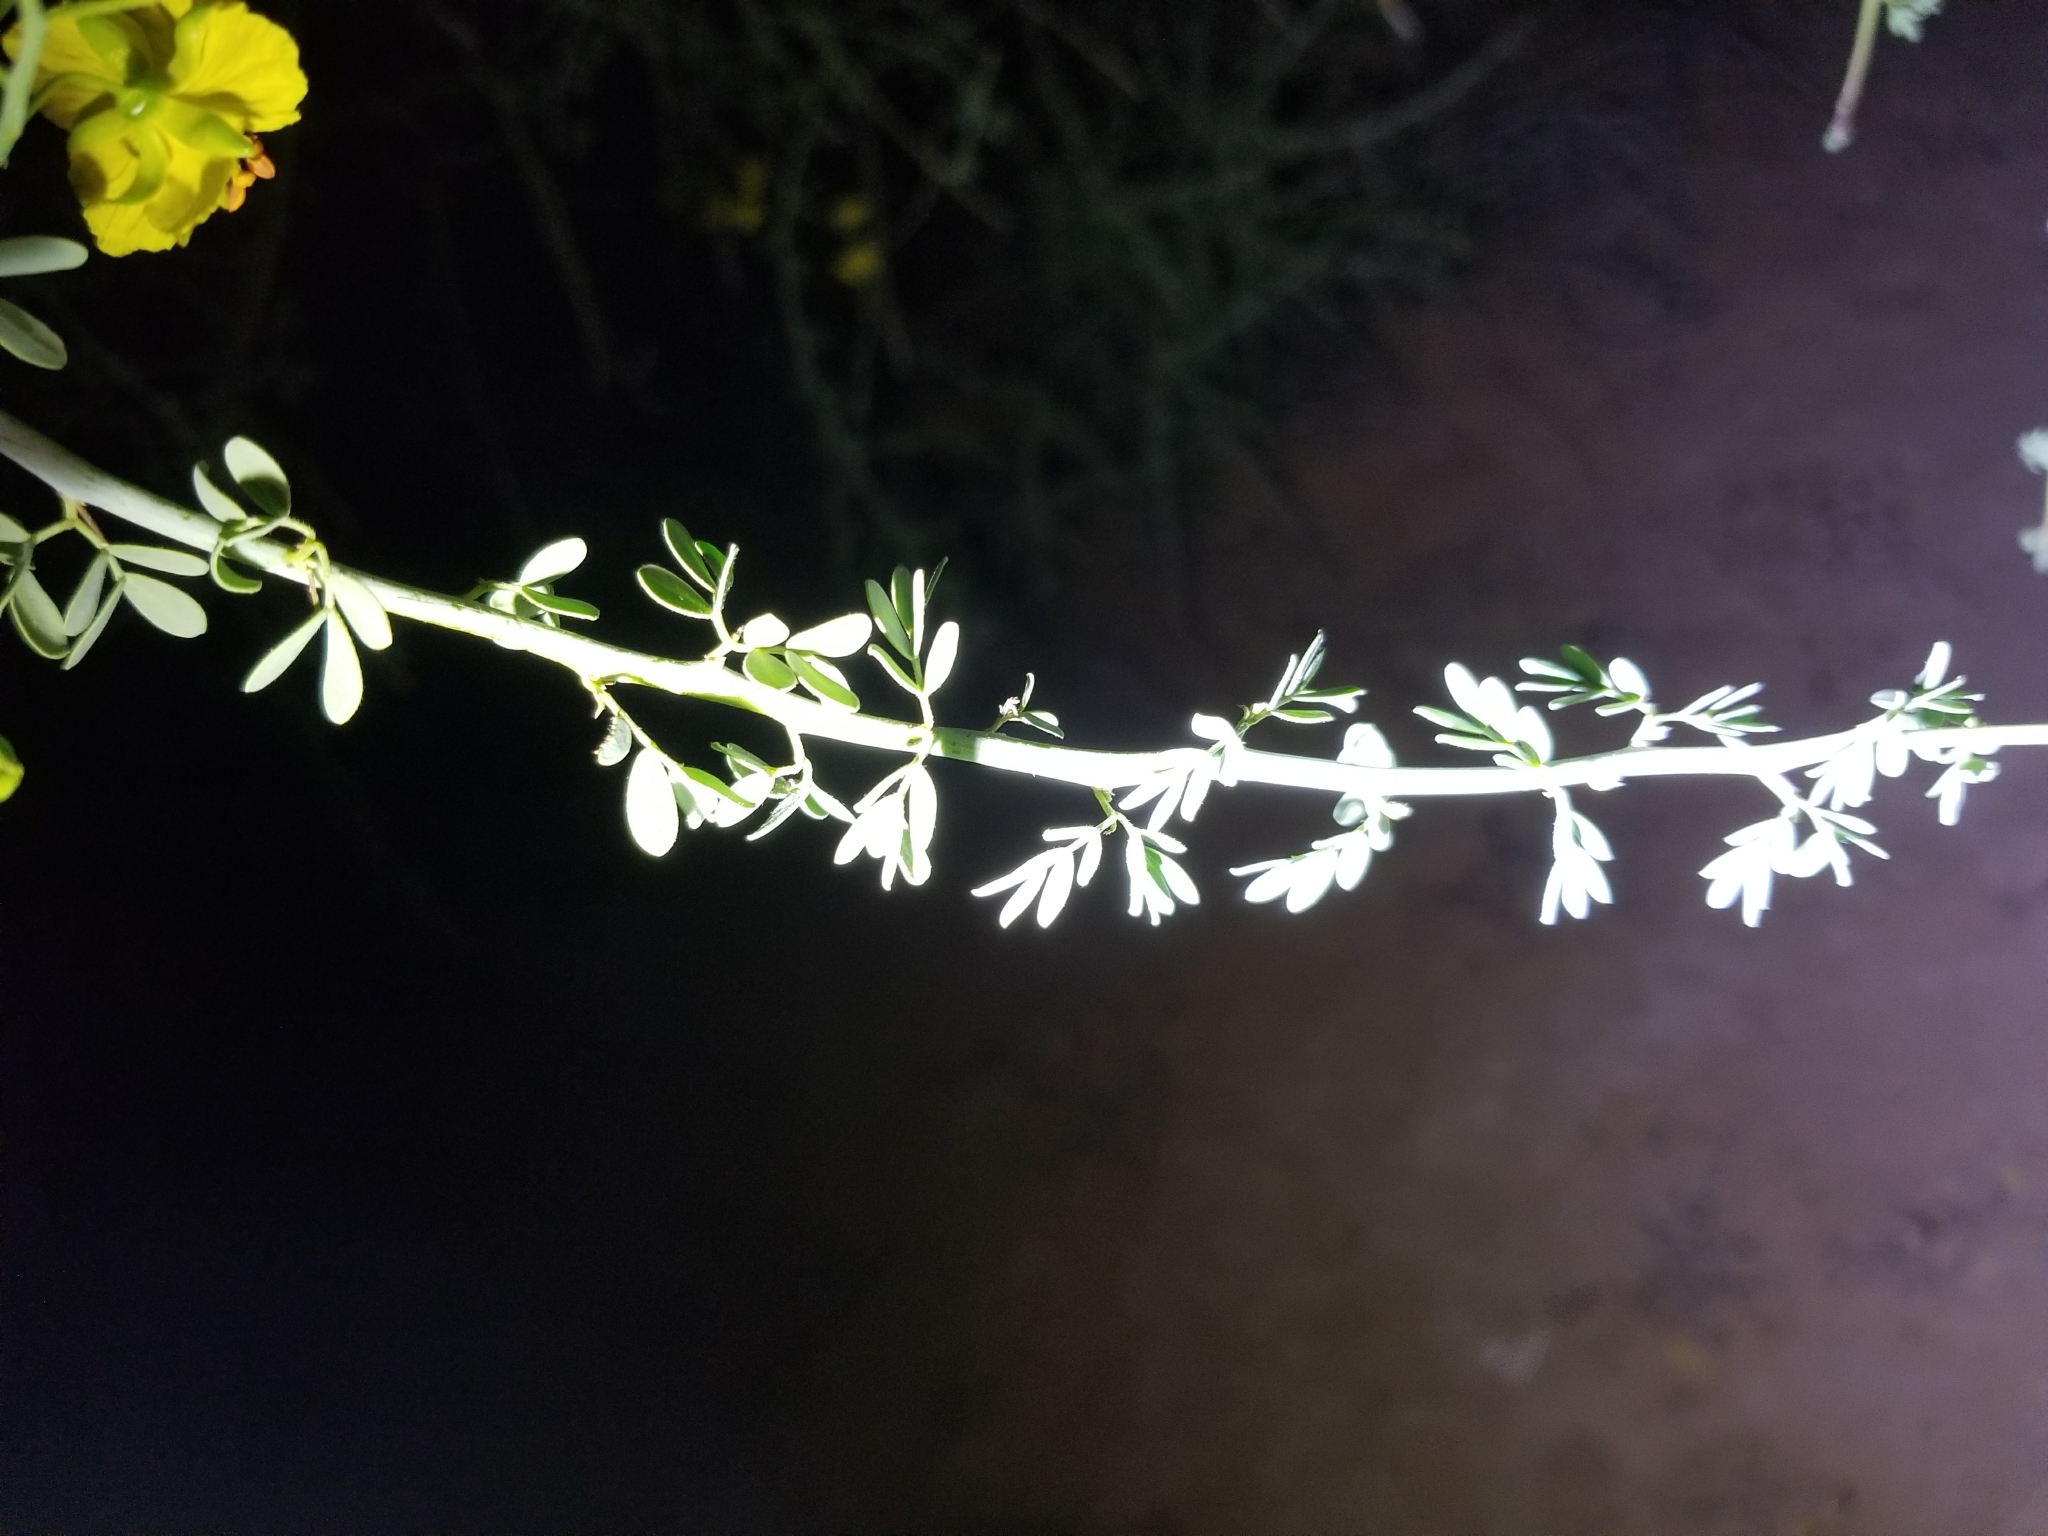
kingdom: Plantae
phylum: Tracheophyta
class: Magnoliopsida
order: Fabales
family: Fabaceae
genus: Parkinsonia
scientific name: Parkinsonia florida
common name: Blue paloverde
